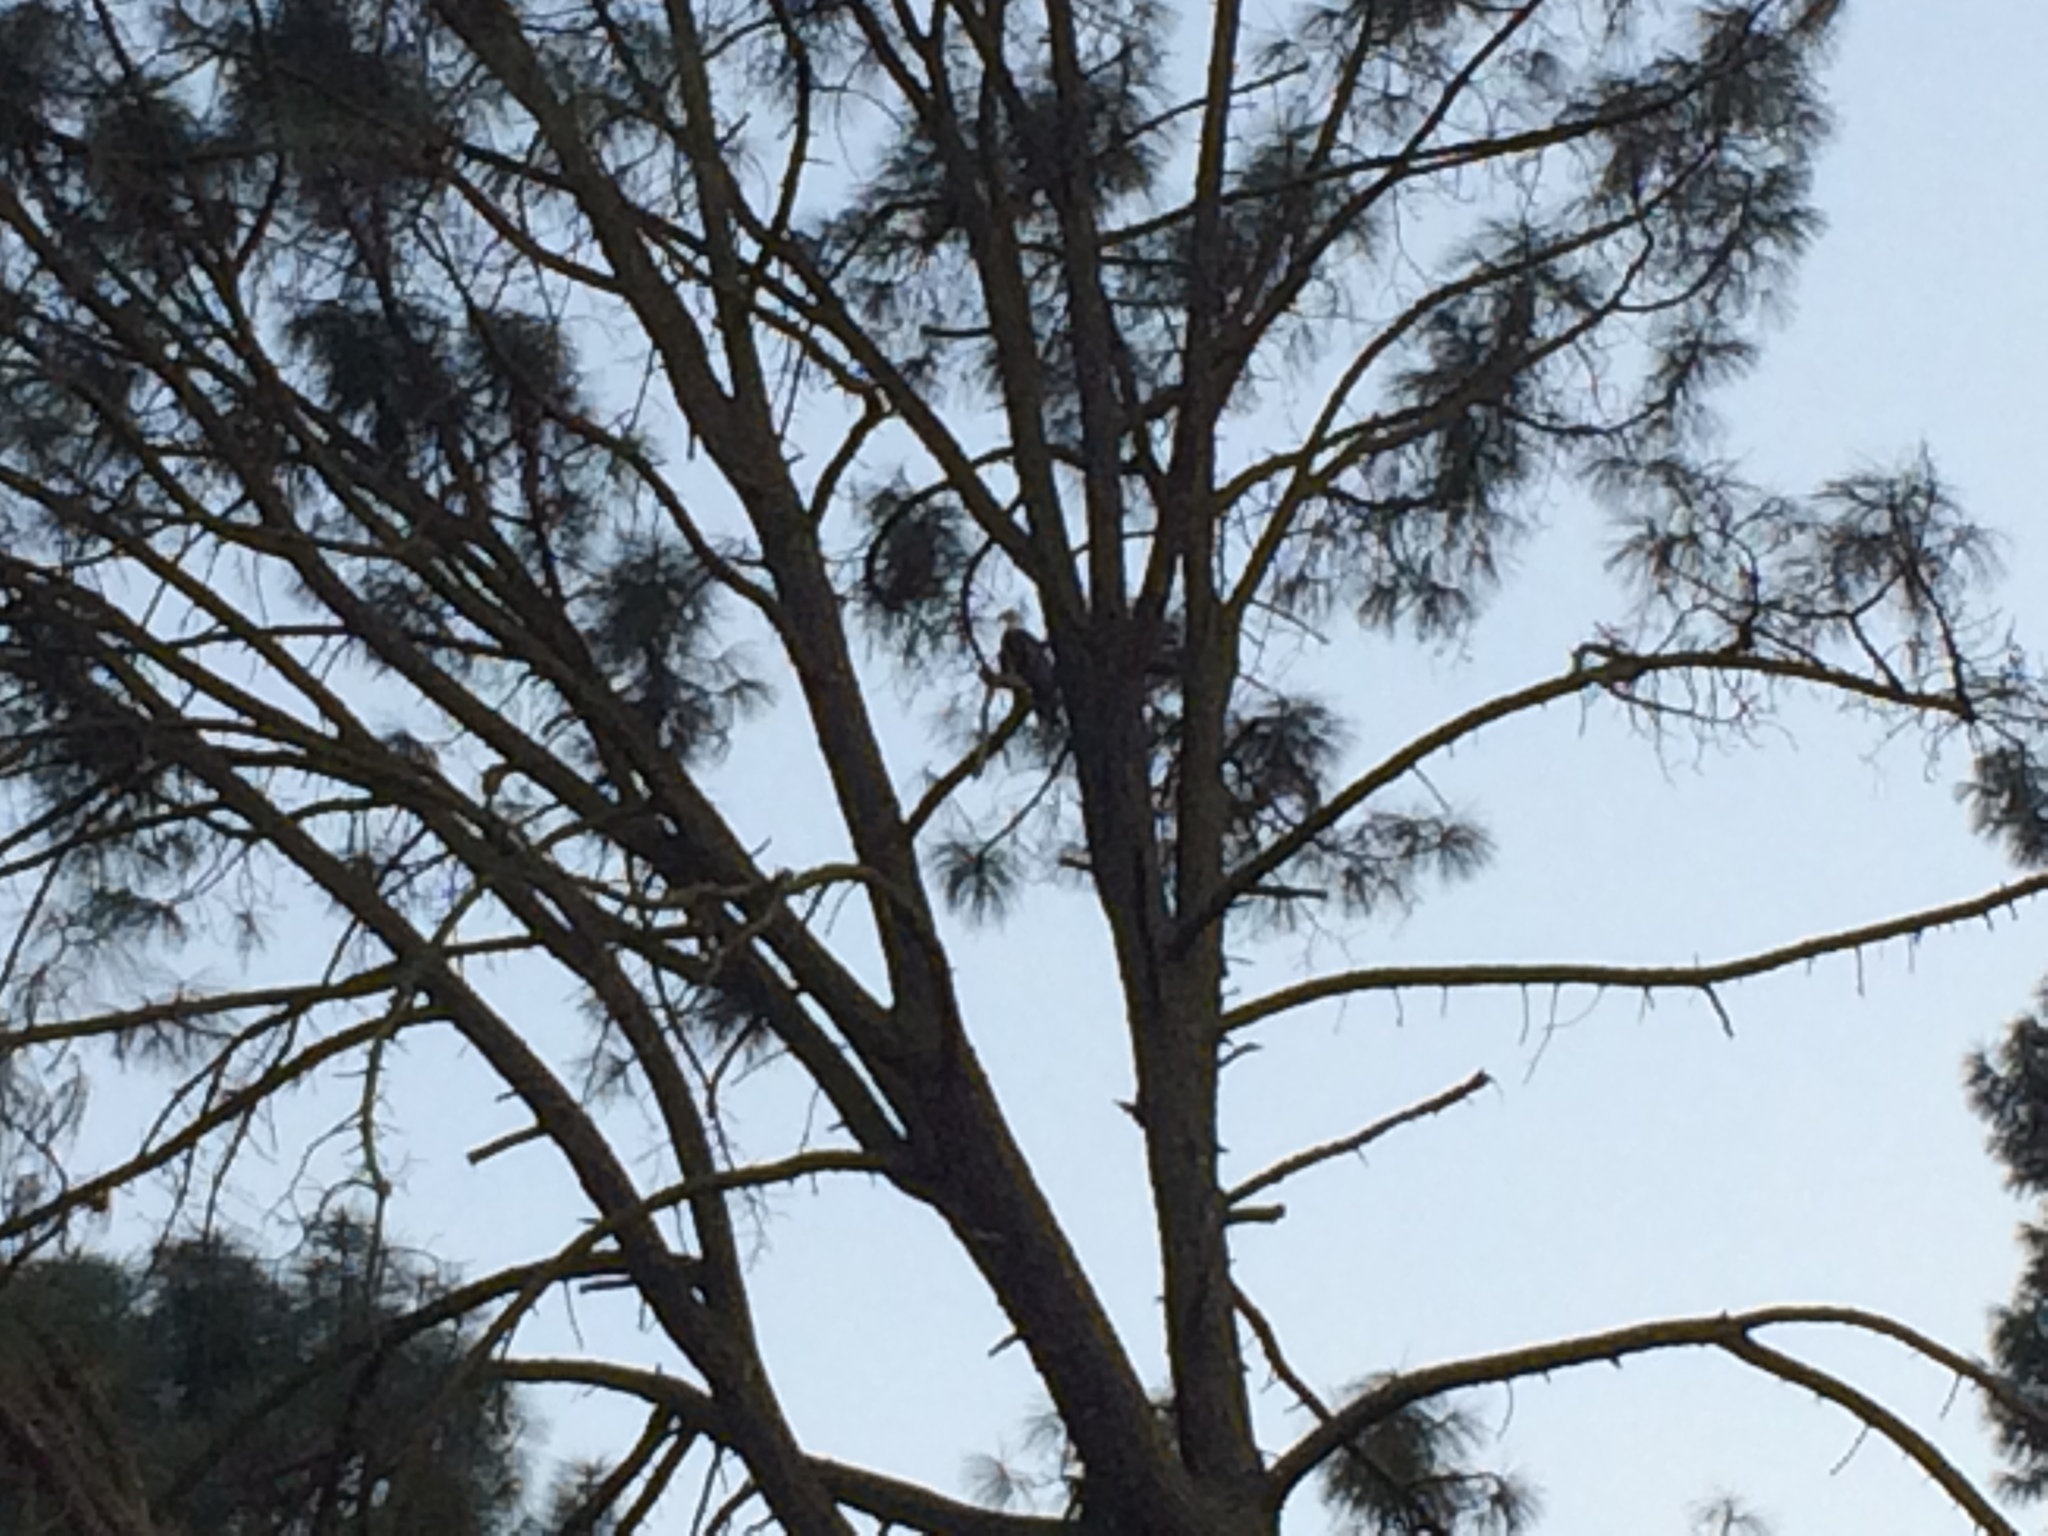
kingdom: Animalia
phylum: Chordata
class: Aves
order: Accipitriformes
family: Accipitridae
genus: Haliaeetus
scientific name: Haliaeetus leucocephalus
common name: Bald eagle
